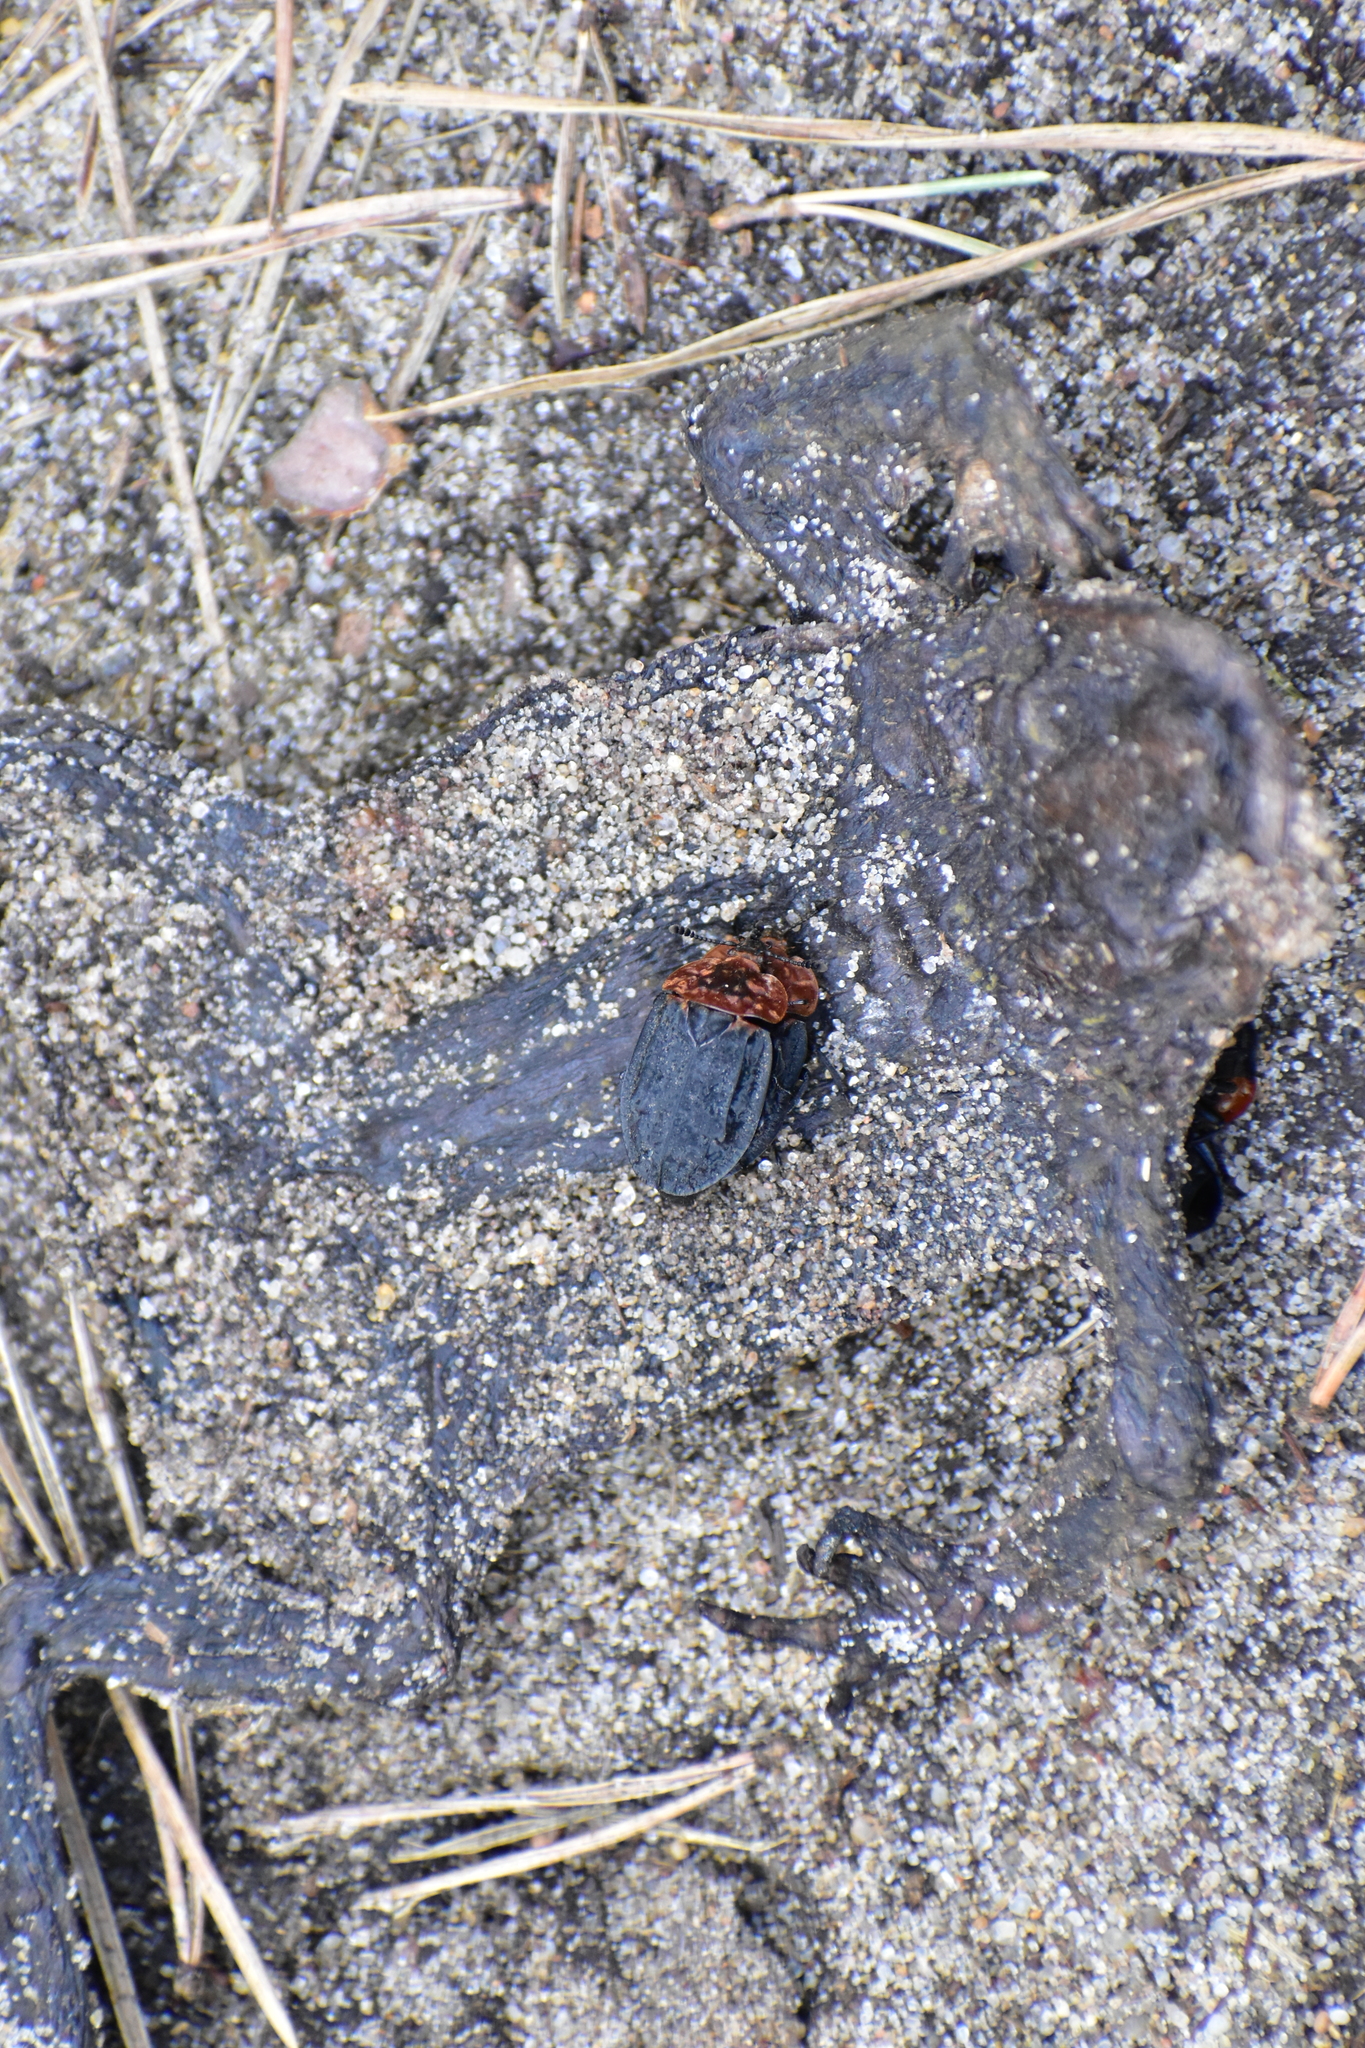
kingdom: Animalia
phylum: Arthropoda
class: Insecta
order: Coleoptera
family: Staphylinidae
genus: Oiceoptoma
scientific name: Oiceoptoma thoracicum
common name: Red-breasted carrion beetle
